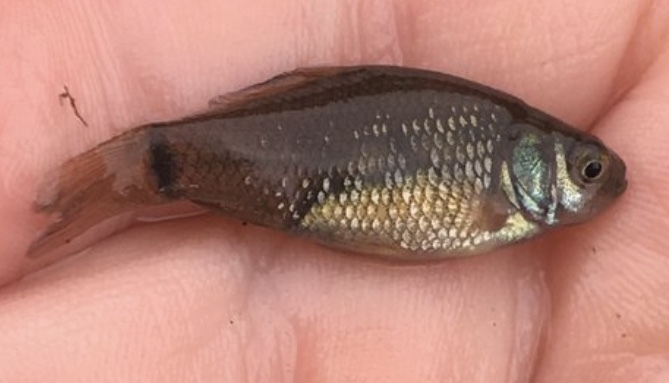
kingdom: Animalia
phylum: Chordata
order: Cypriniformes
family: Cyprinidae
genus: Carassius
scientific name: Carassius carassius
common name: Crucian carp
